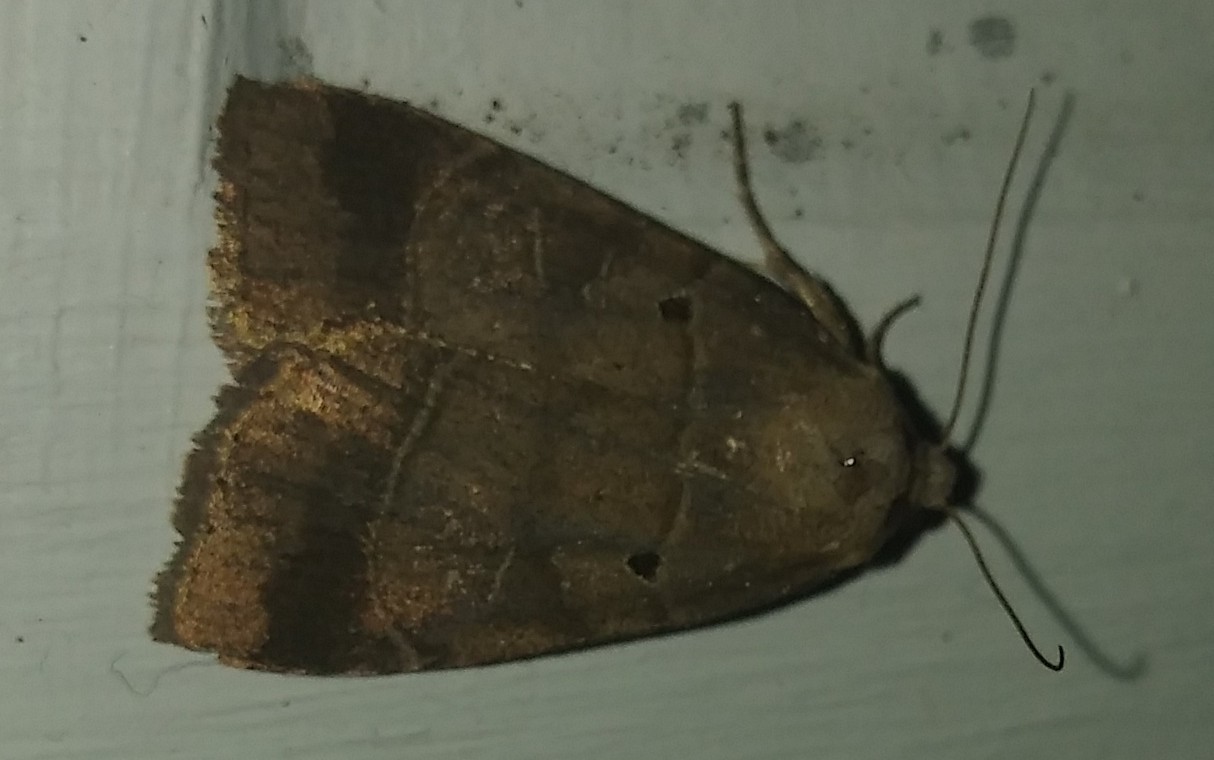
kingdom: Animalia
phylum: Arthropoda
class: Insecta
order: Lepidoptera
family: Noctuidae
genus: Agnorisma
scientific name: Agnorisma badinodis
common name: Pale-banded dart
